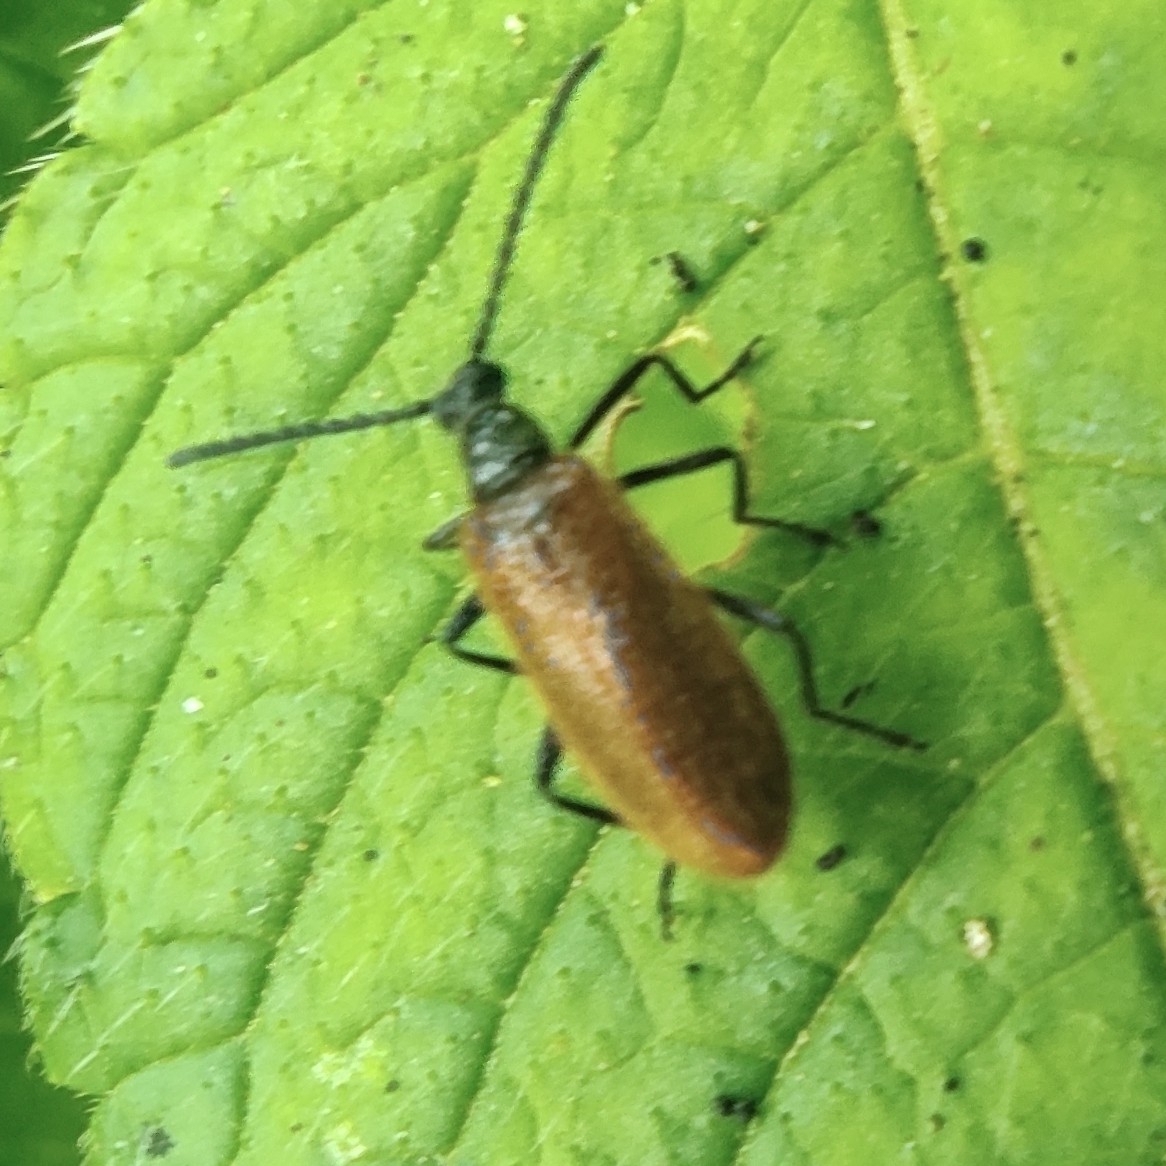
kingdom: Animalia
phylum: Arthropoda
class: Insecta
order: Coleoptera
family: Tenebrionidae
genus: Lagria
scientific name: Lagria hirta
